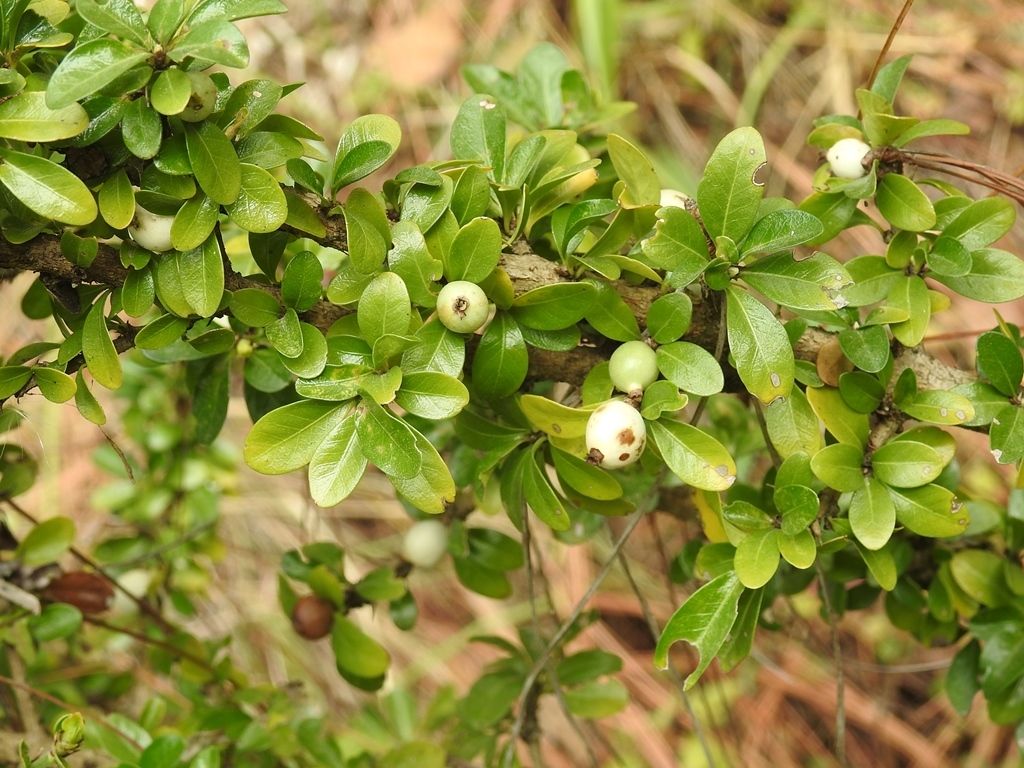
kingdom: Plantae
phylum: Tracheophyta
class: Magnoliopsida
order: Gentianales
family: Rubiaceae
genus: Randia
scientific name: Randia chiapensis
